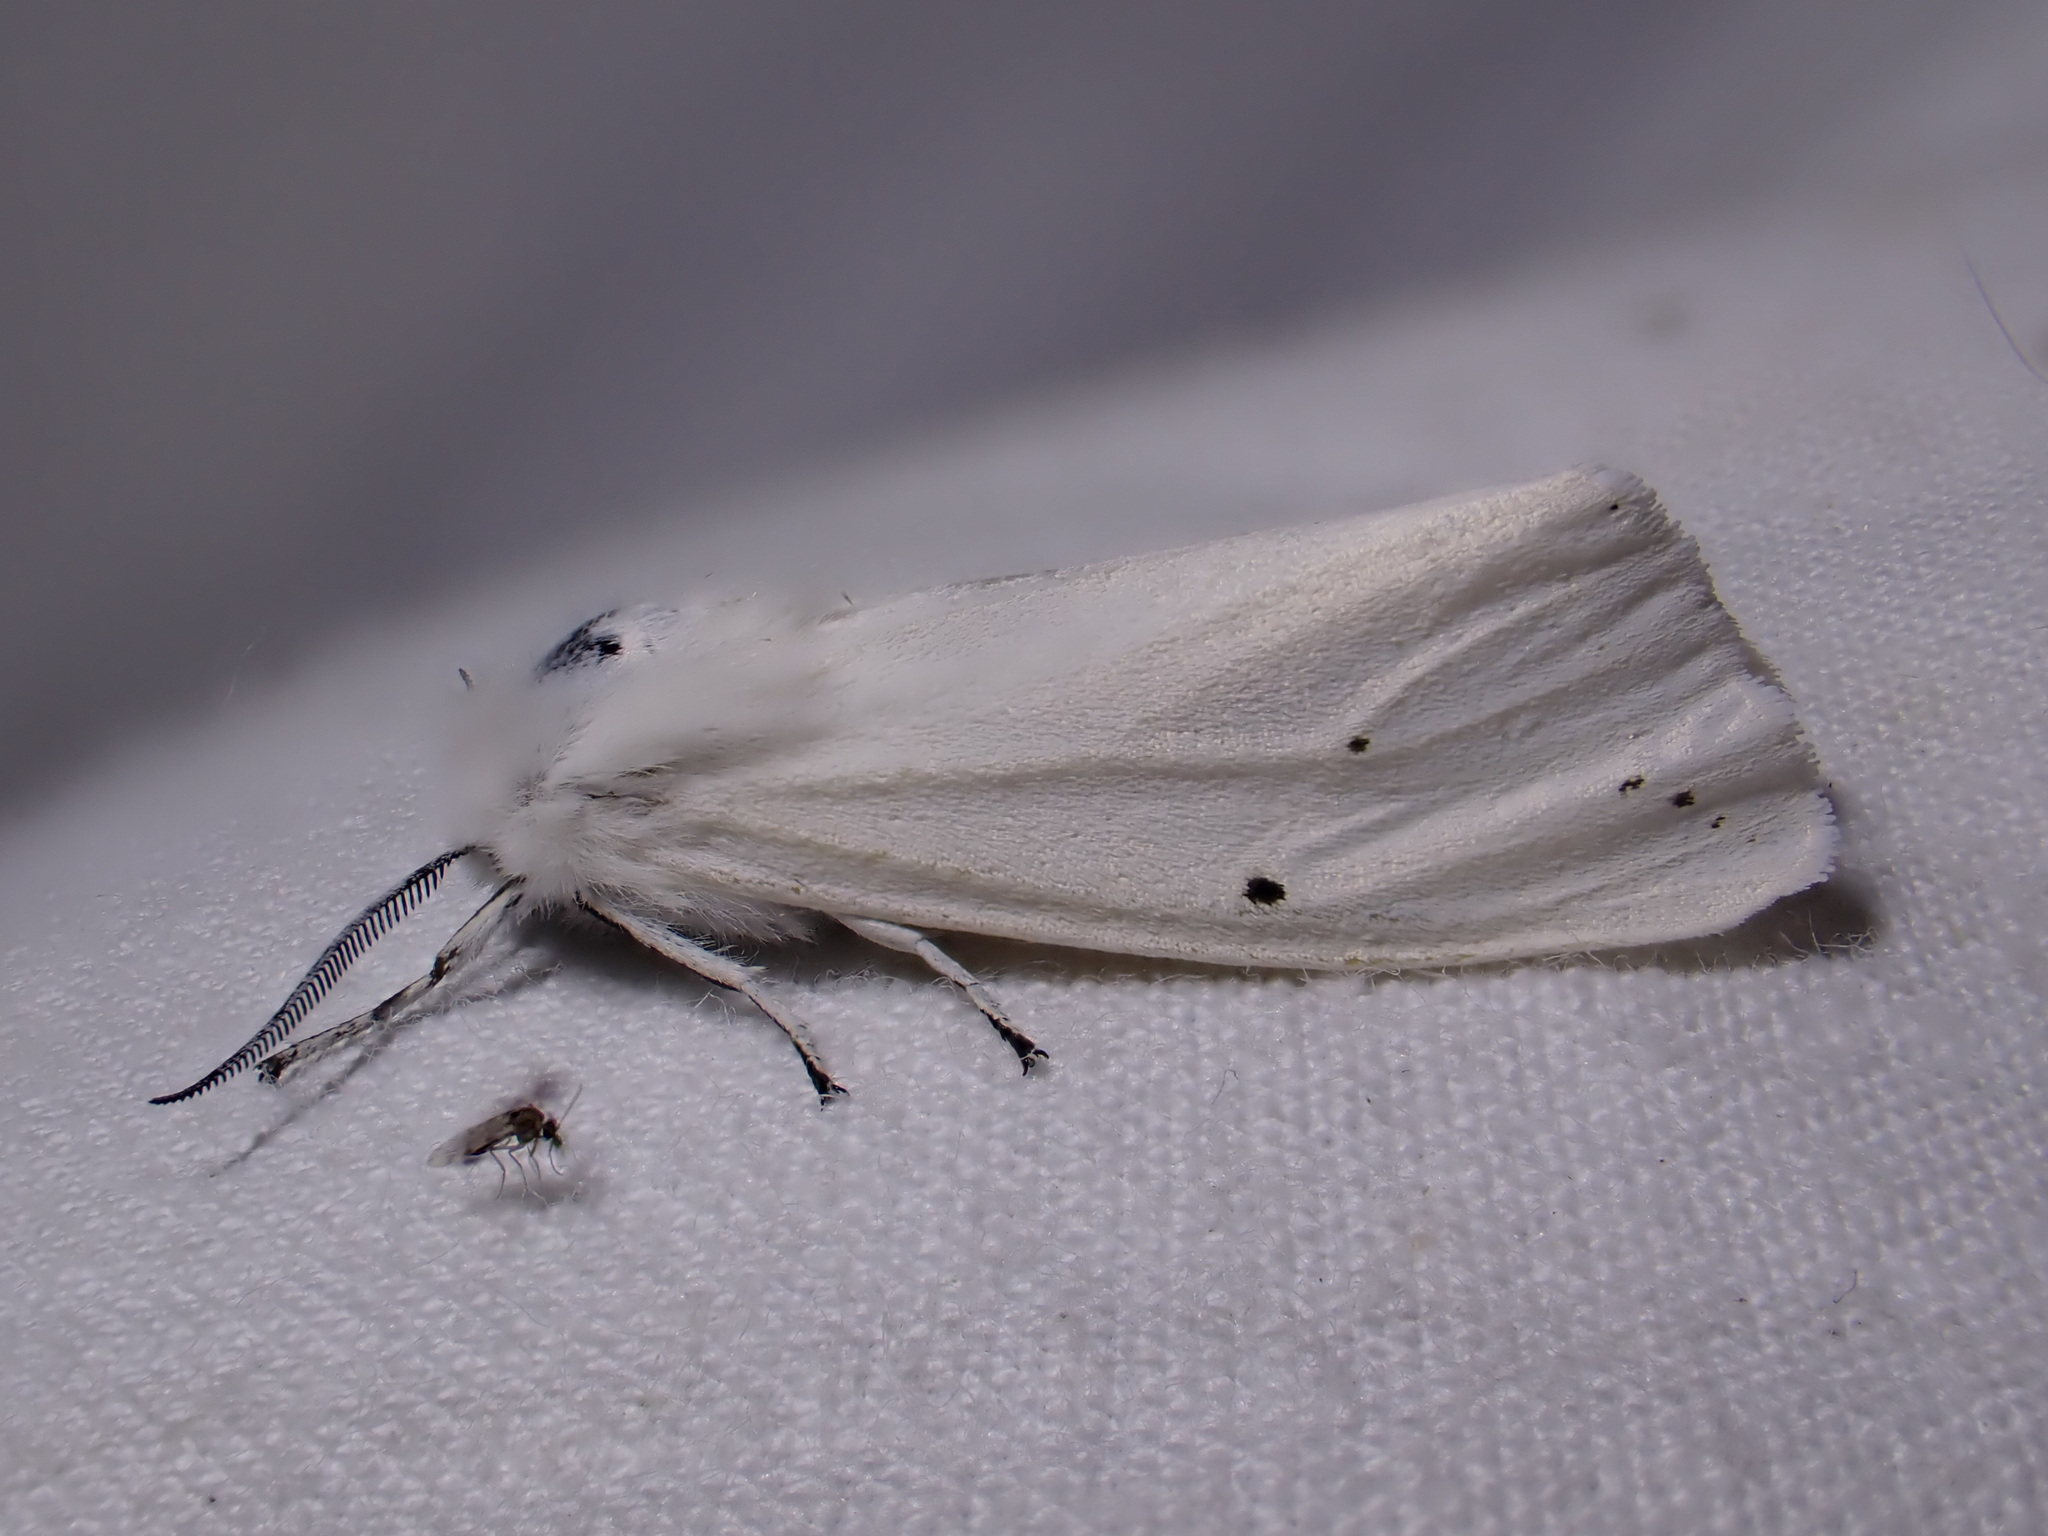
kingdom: Animalia
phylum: Arthropoda
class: Insecta
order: Lepidoptera
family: Erebidae
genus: Spilosoma
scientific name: Spilosoma urticae
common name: Water ermine
